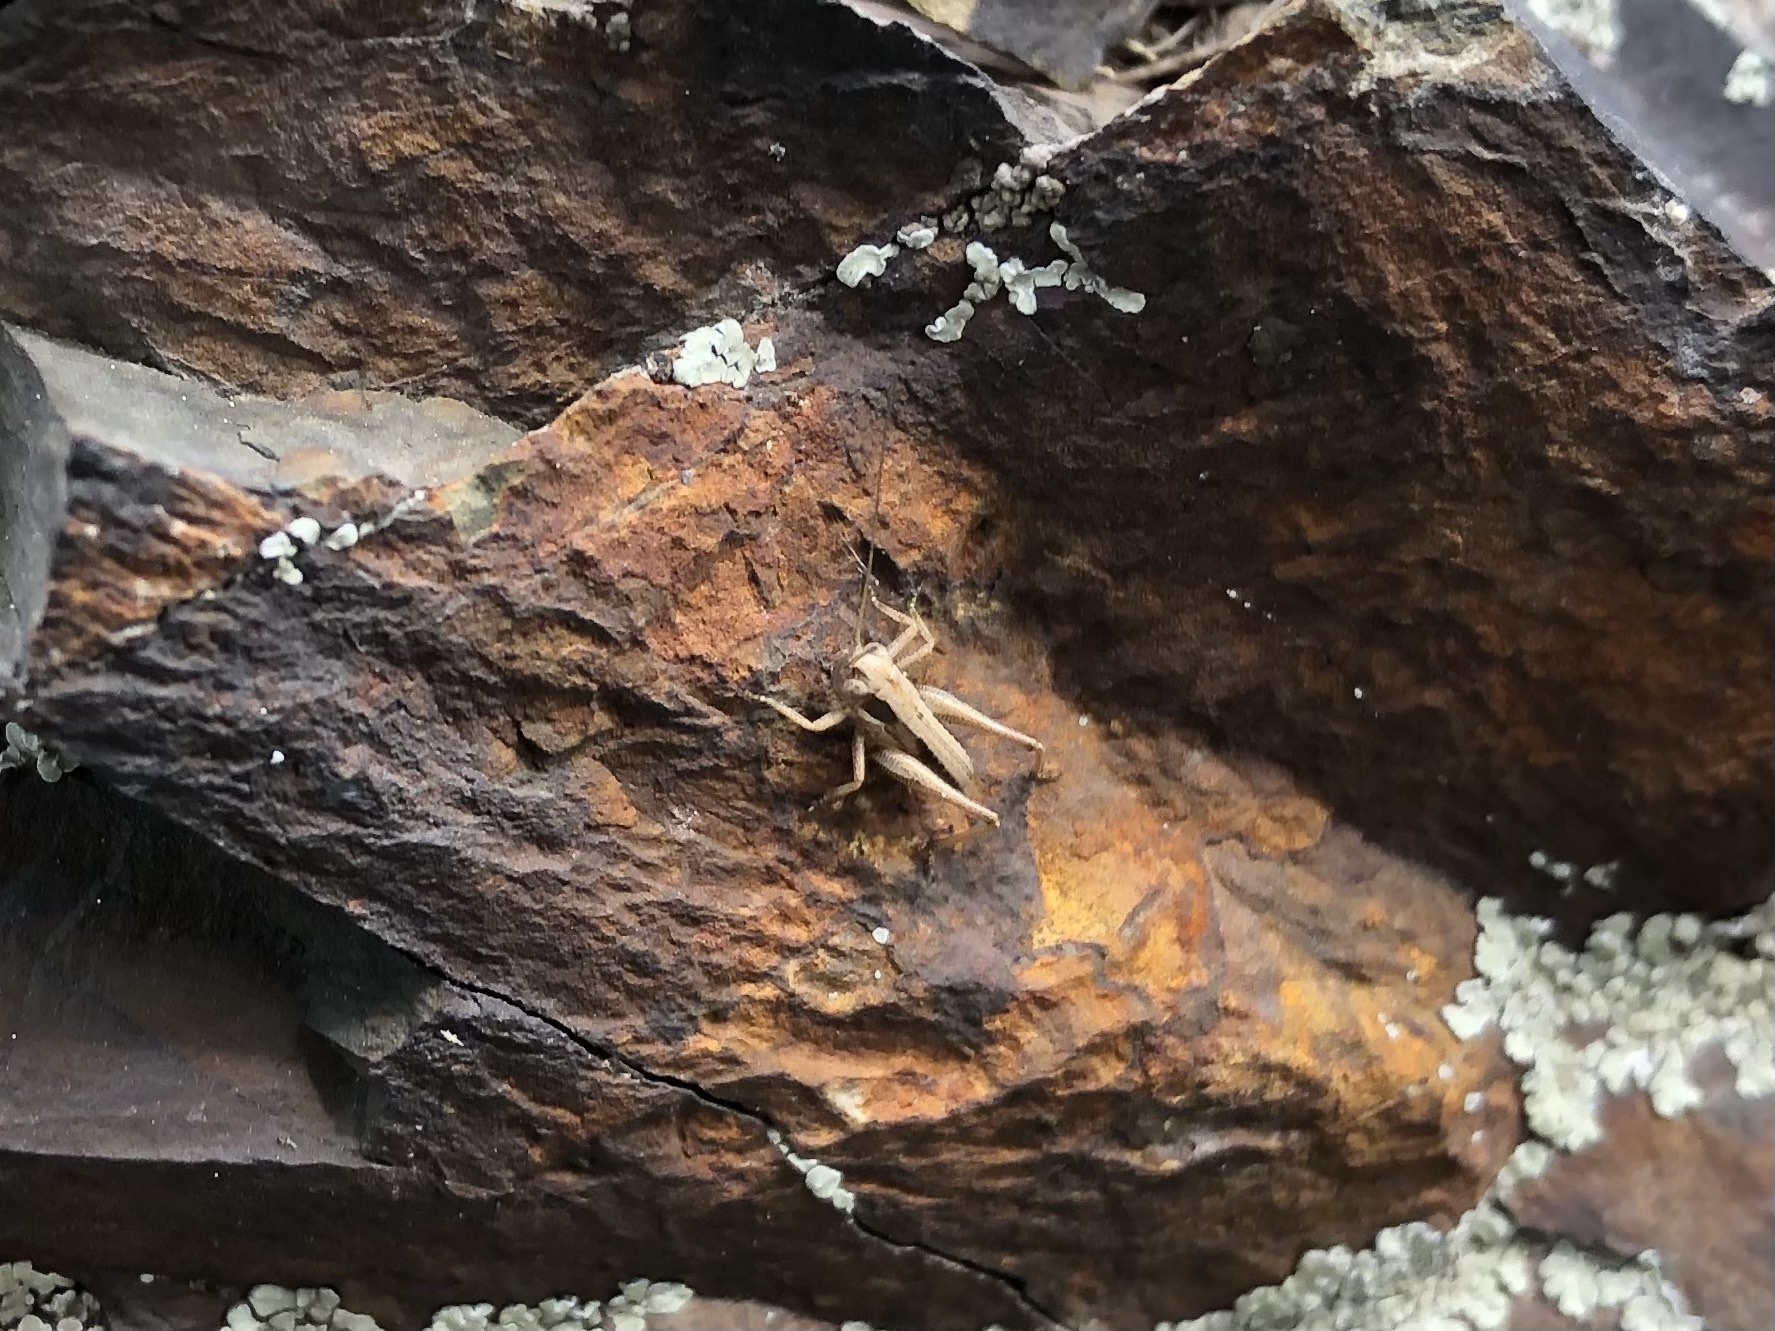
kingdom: Animalia
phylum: Arthropoda
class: Insecta
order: Orthoptera
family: Tettigoniidae
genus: Platycleis
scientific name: Platycleis albopunctata
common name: Grey bush-cricket
